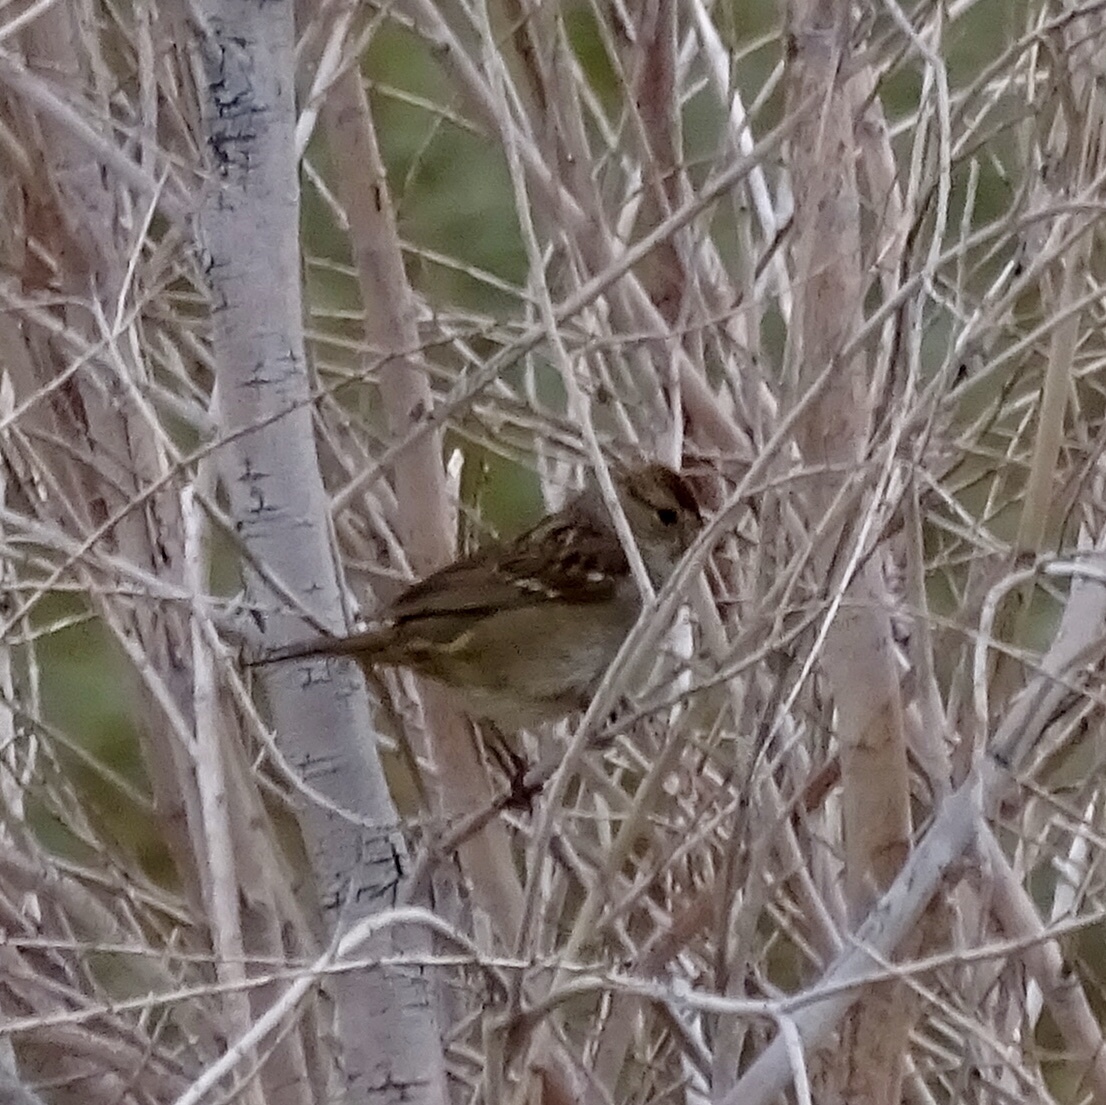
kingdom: Animalia
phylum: Chordata
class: Aves
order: Passeriformes
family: Passerellidae
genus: Zonotrichia
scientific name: Zonotrichia leucophrys
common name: White-crowned sparrow
